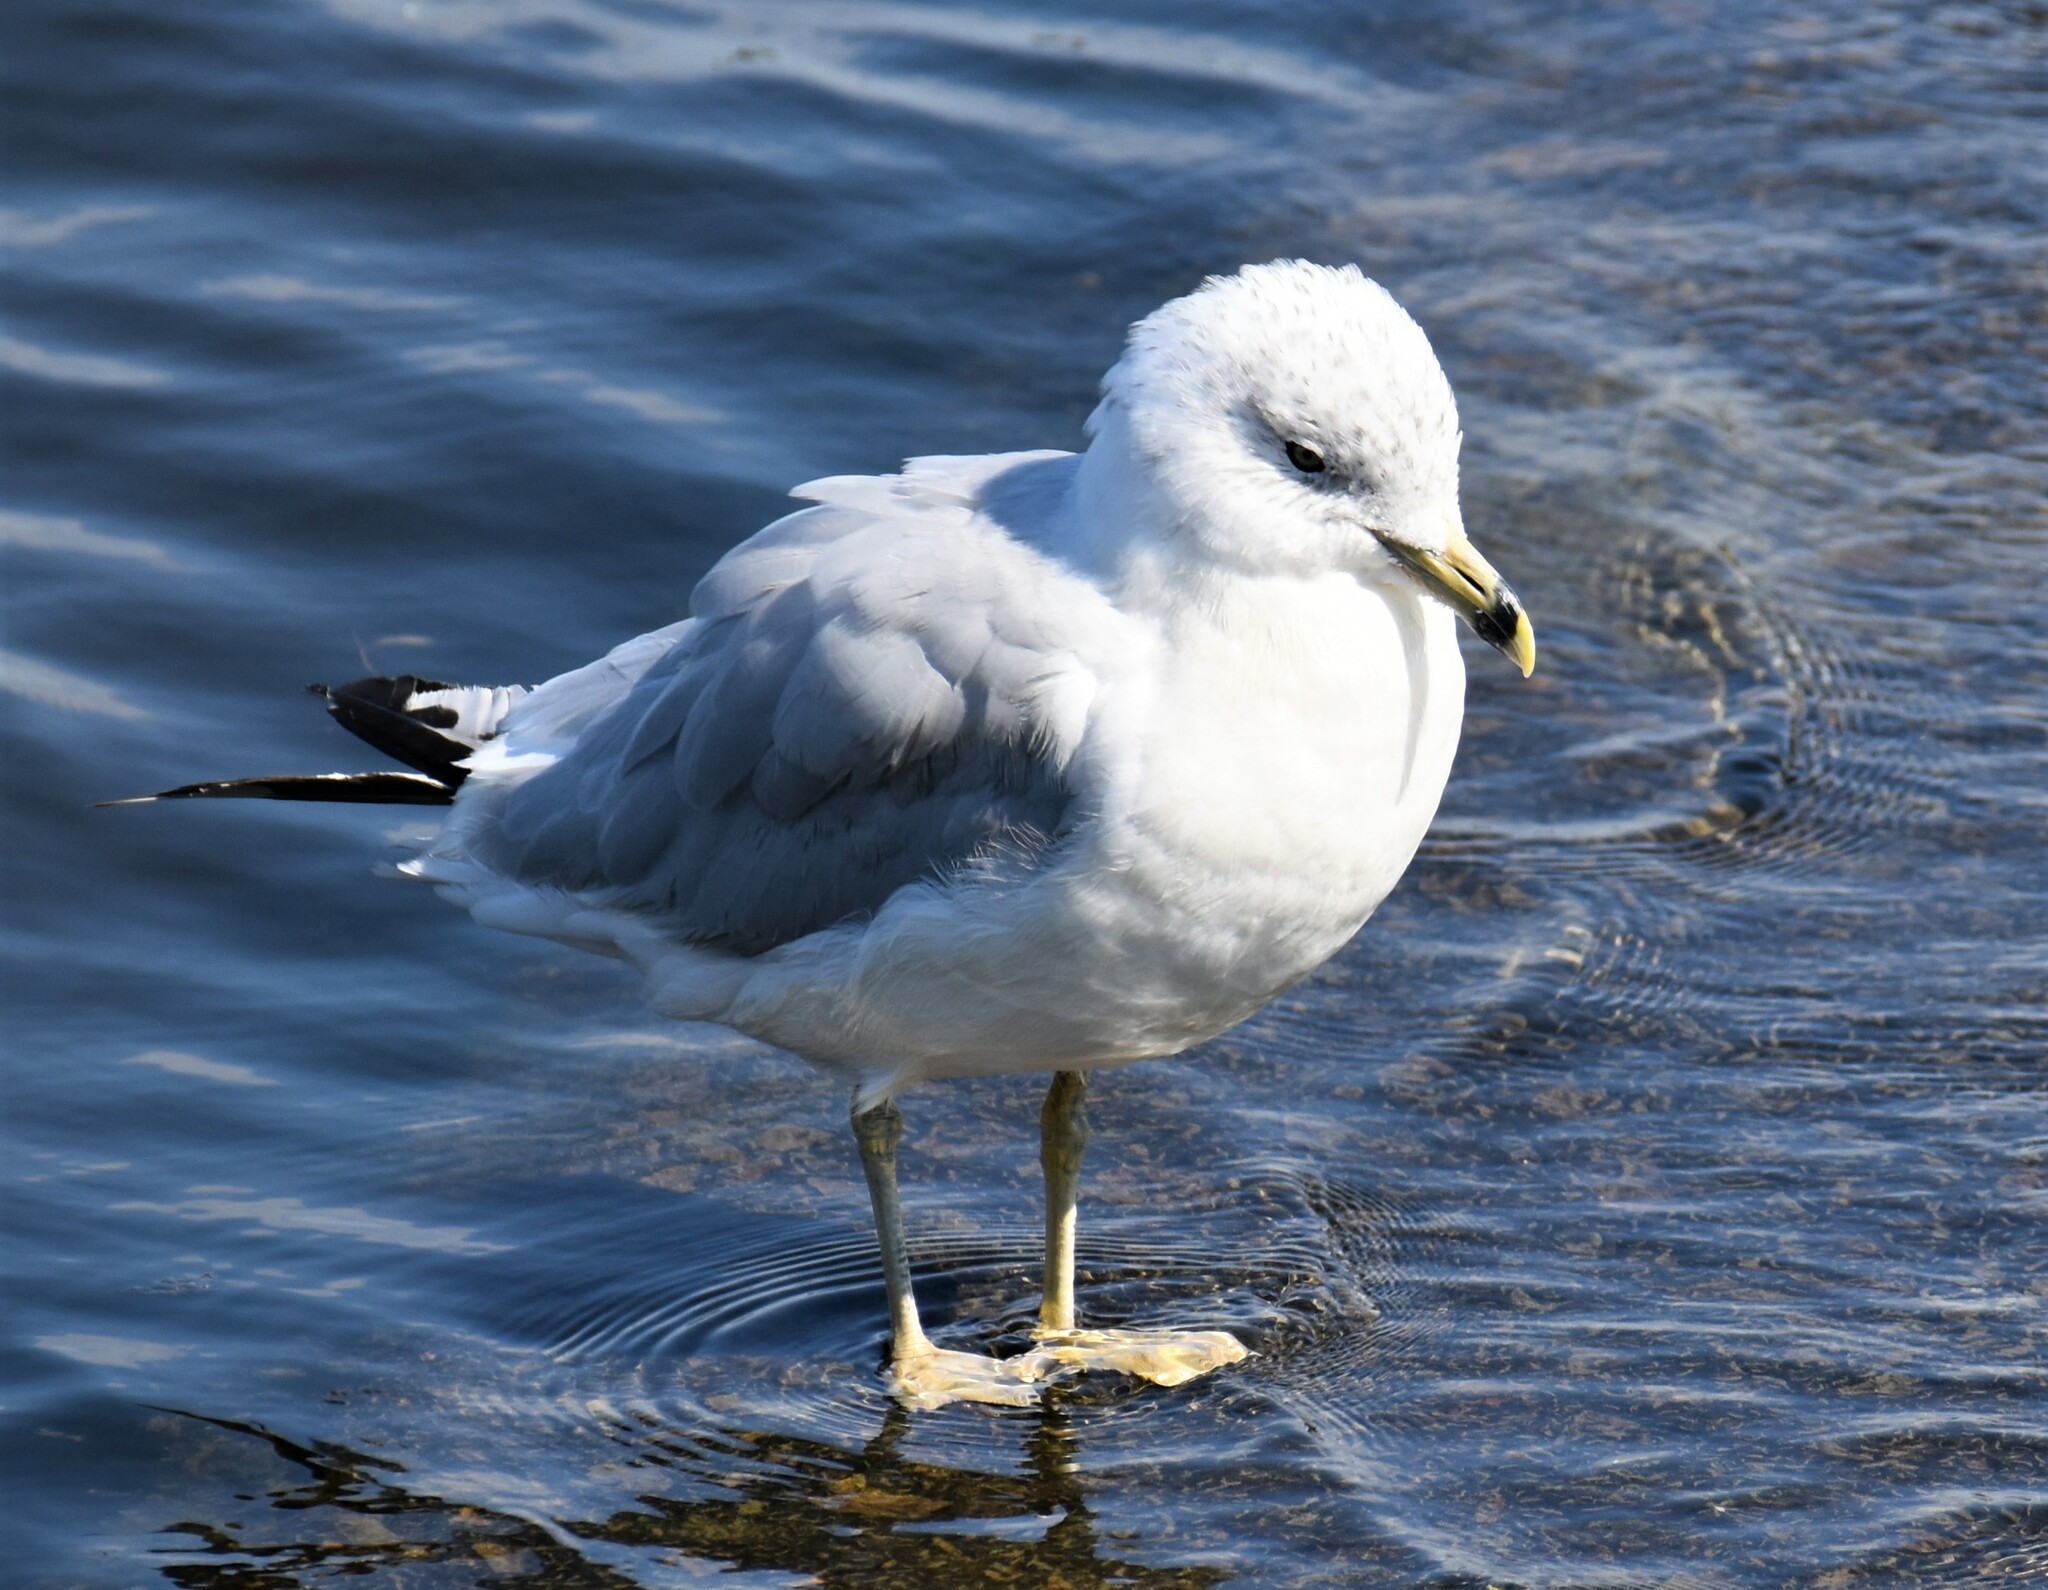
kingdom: Animalia
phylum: Chordata
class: Aves
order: Charadriiformes
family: Laridae
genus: Larus
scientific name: Larus delawarensis
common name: Ring-billed gull
